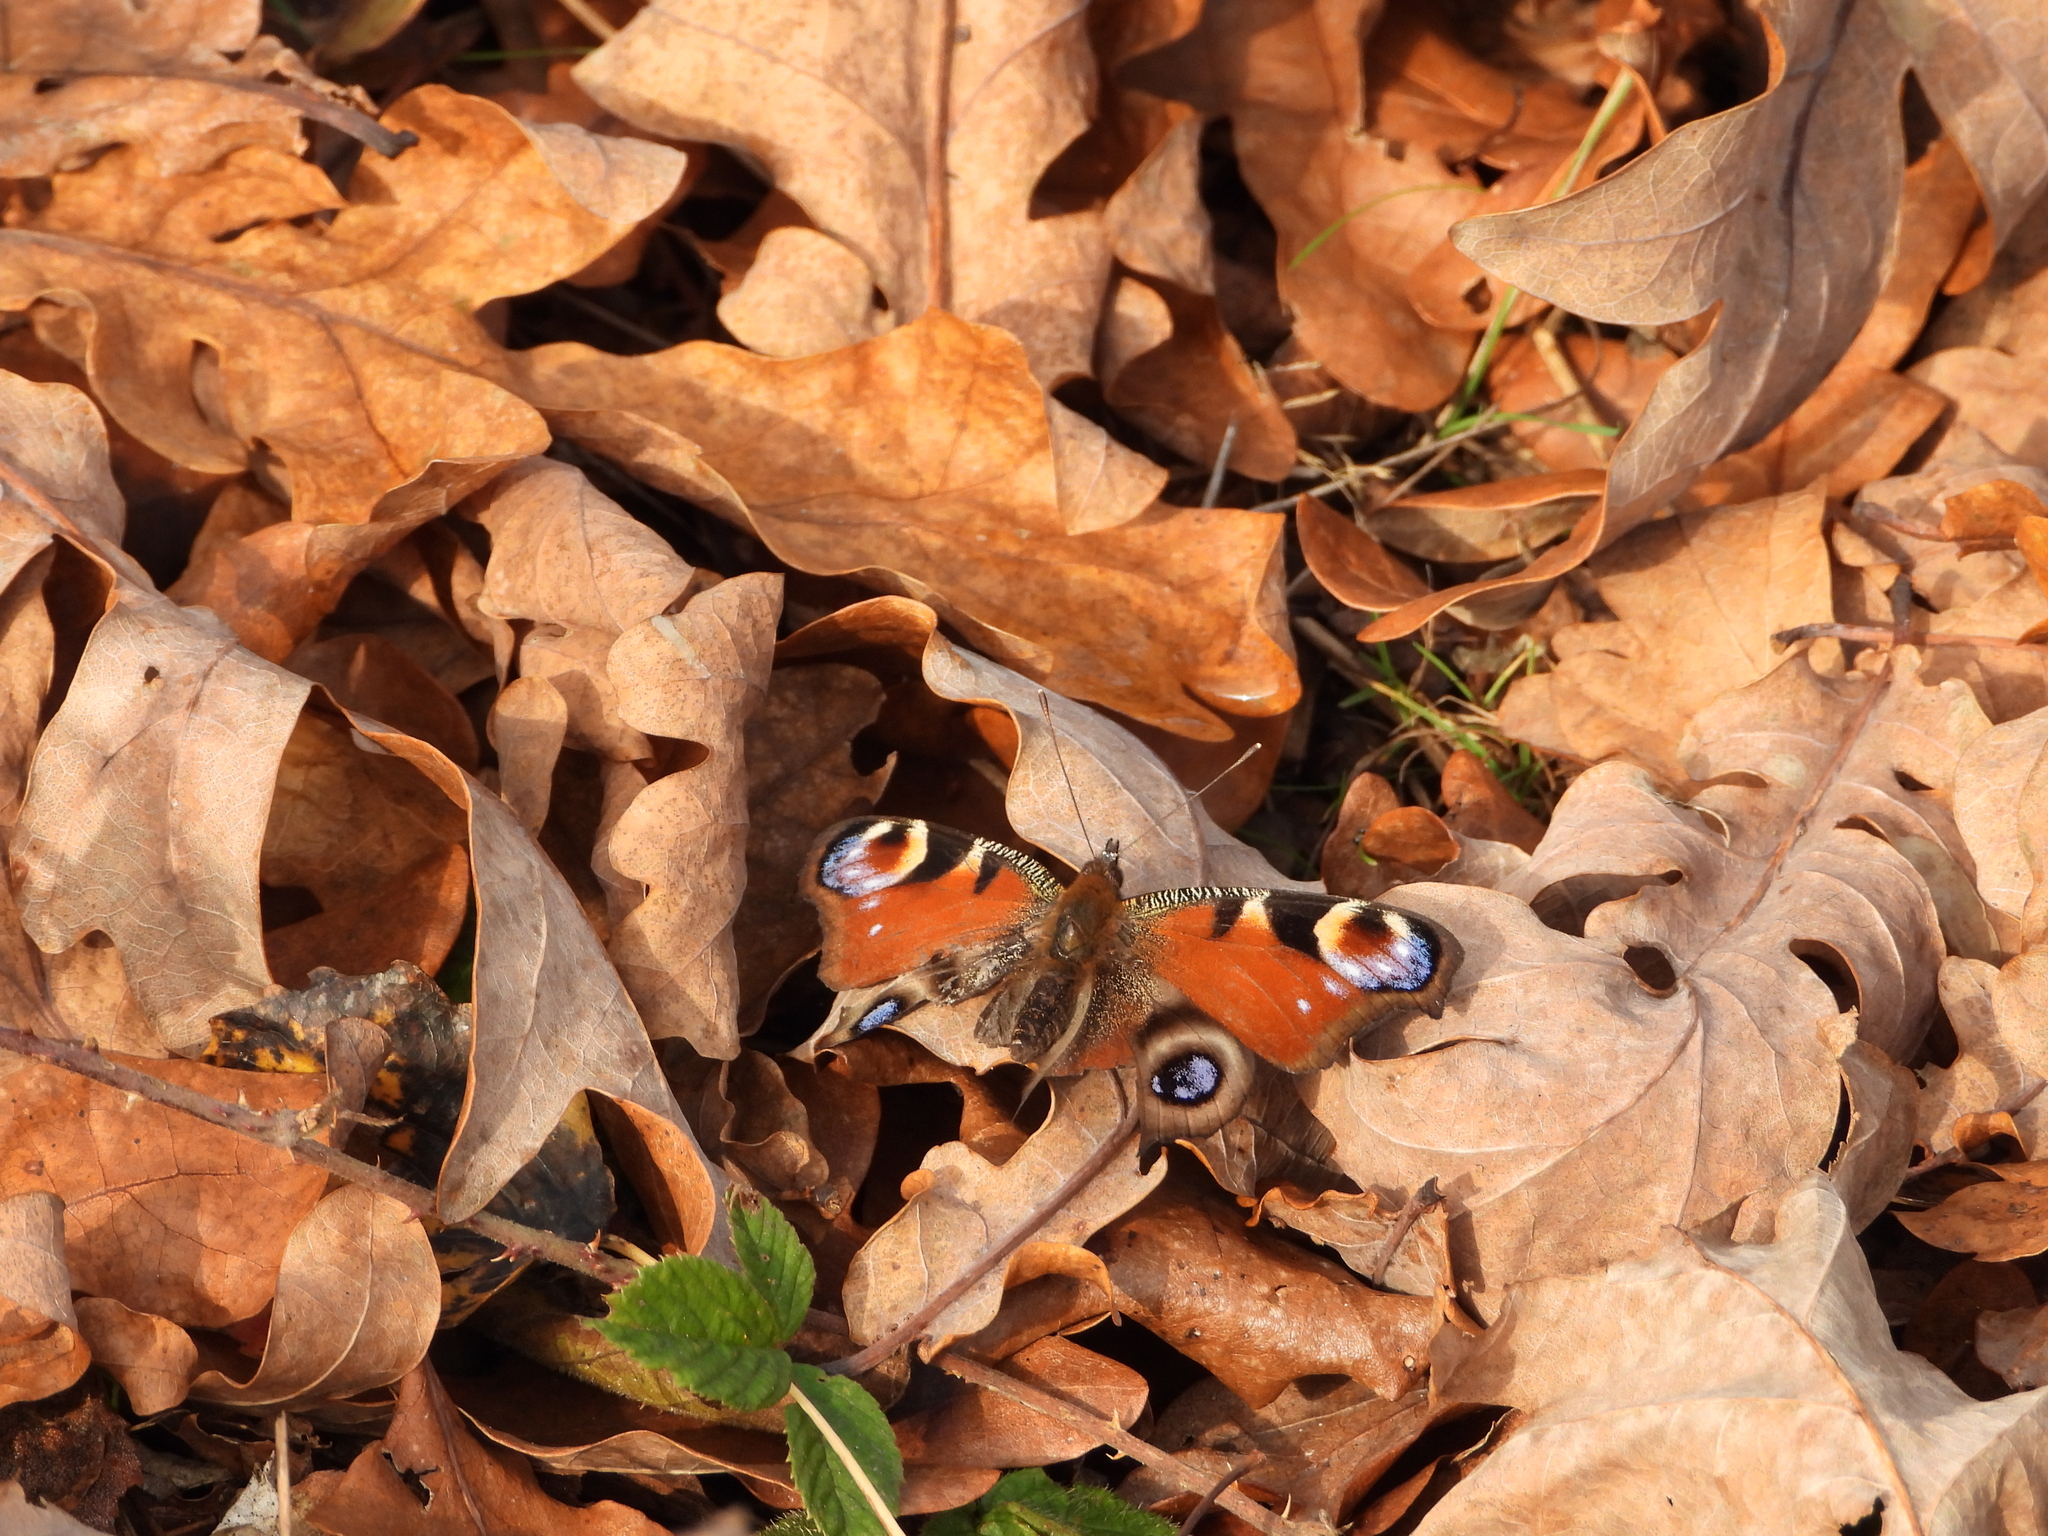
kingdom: Animalia
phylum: Arthropoda
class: Insecta
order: Lepidoptera
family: Nymphalidae
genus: Aglais
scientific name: Aglais io
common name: Peacock
